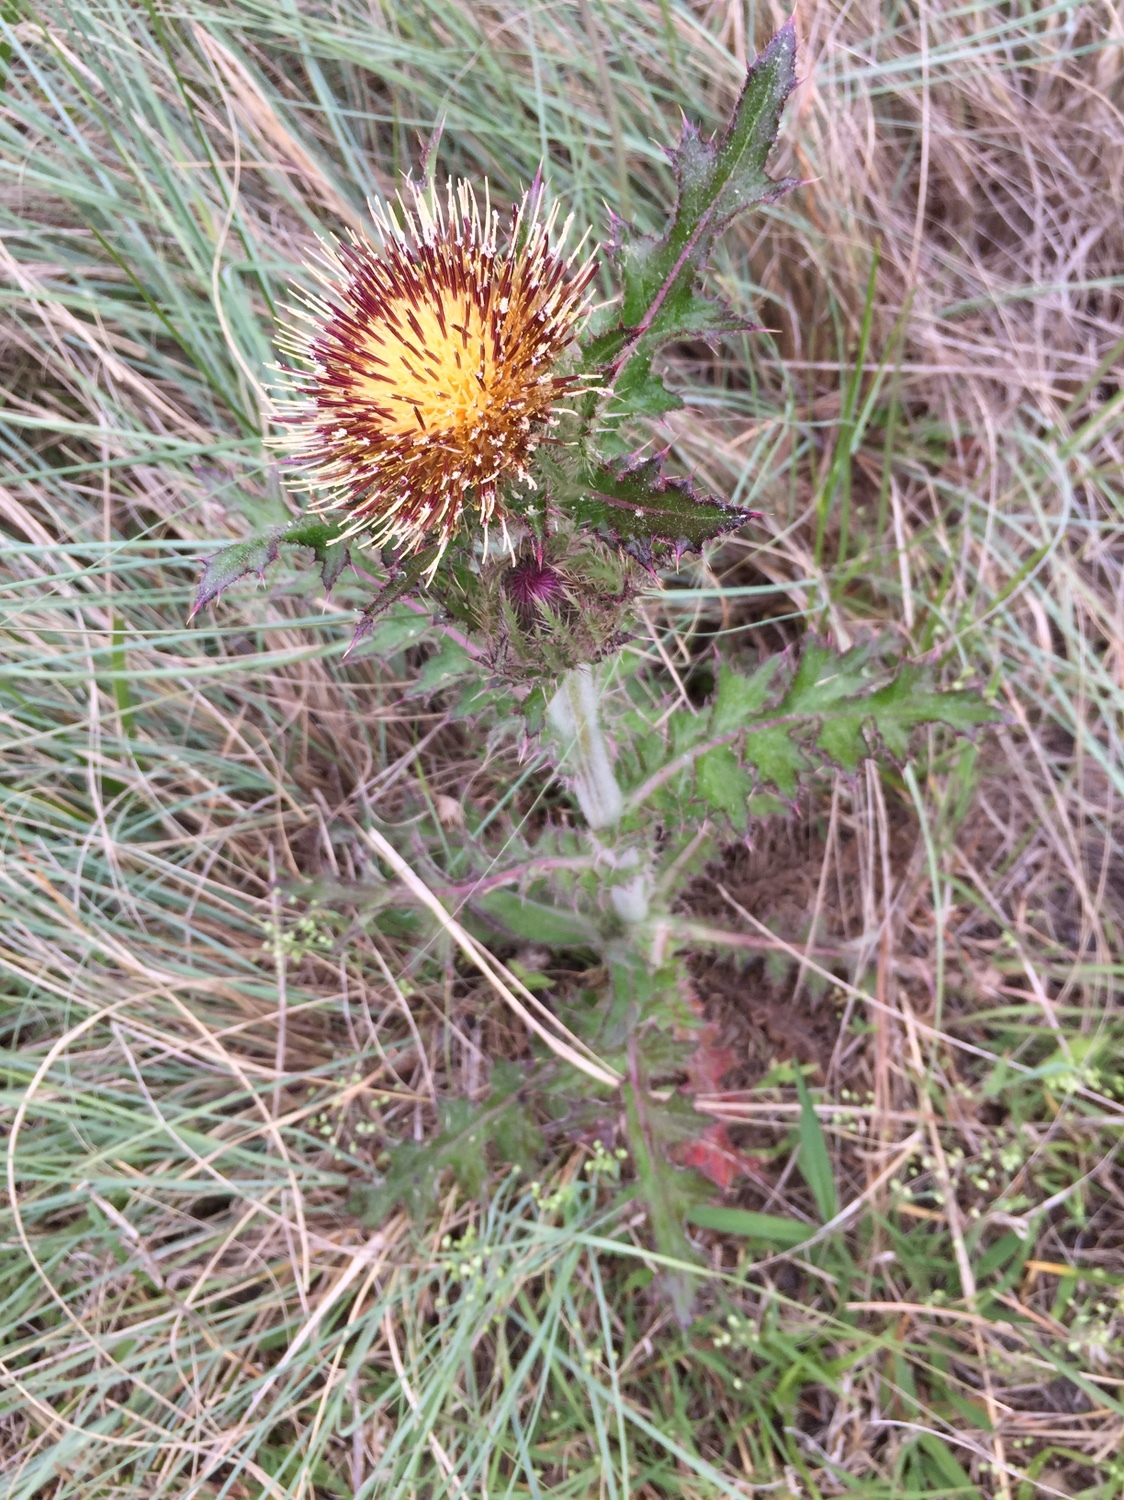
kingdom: Plantae
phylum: Tracheophyta
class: Magnoliopsida
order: Asterales
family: Asteraceae
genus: Cirsium
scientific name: Cirsium horridulum
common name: Bristly thistle
